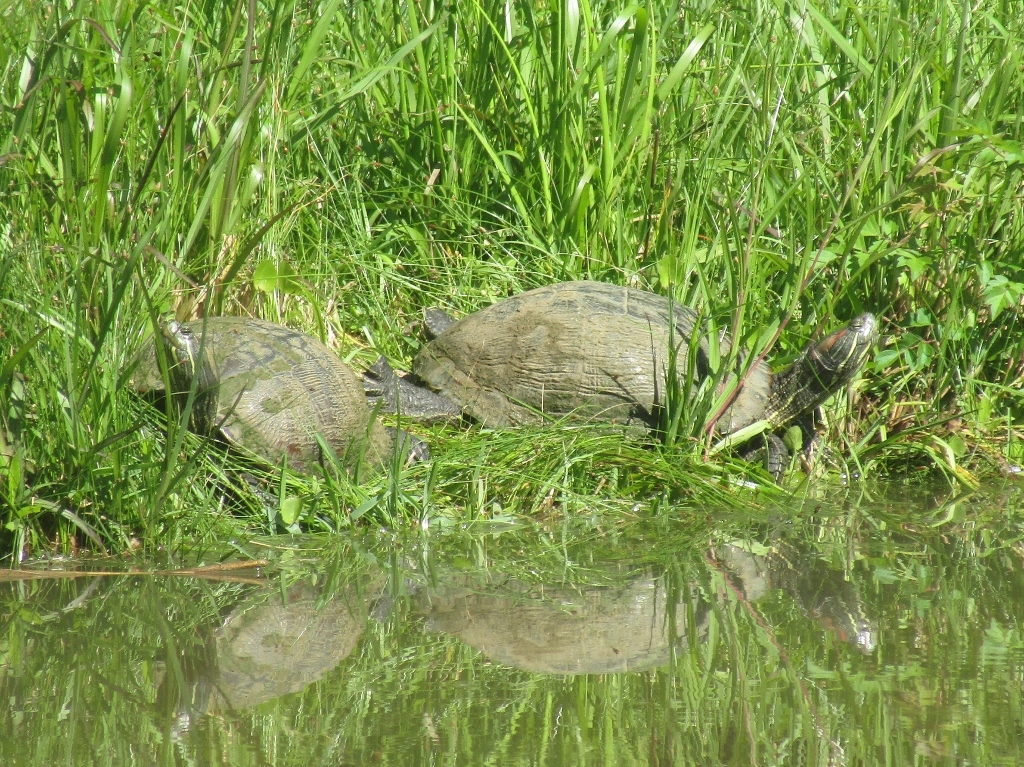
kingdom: Animalia
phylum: Chordata
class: Testudines
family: Emydidae
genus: Trachemys
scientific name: Trachemys scripta
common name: Slider
